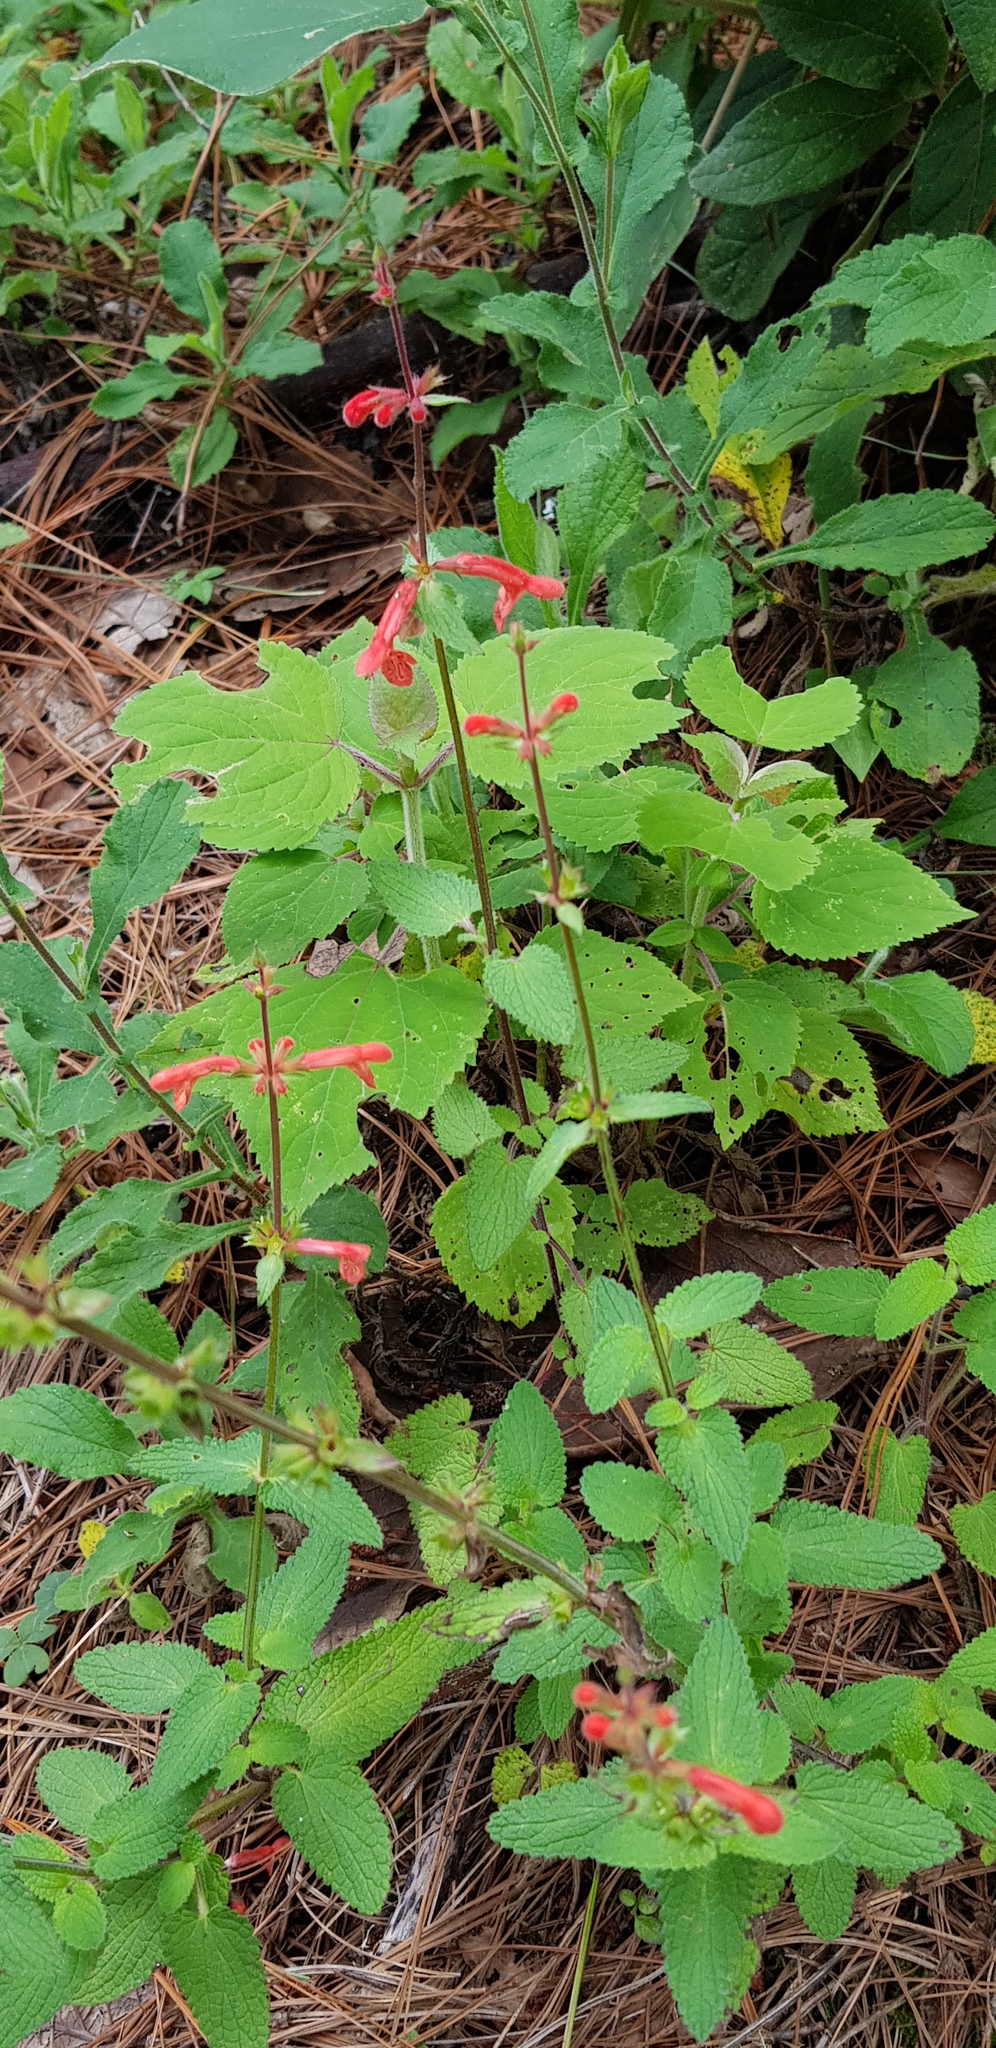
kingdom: Plantae
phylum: Tracheophyta
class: Magnoliopsida
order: Lamiales
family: Lamiaceae
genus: Stachys
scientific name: Stachys coccinea
